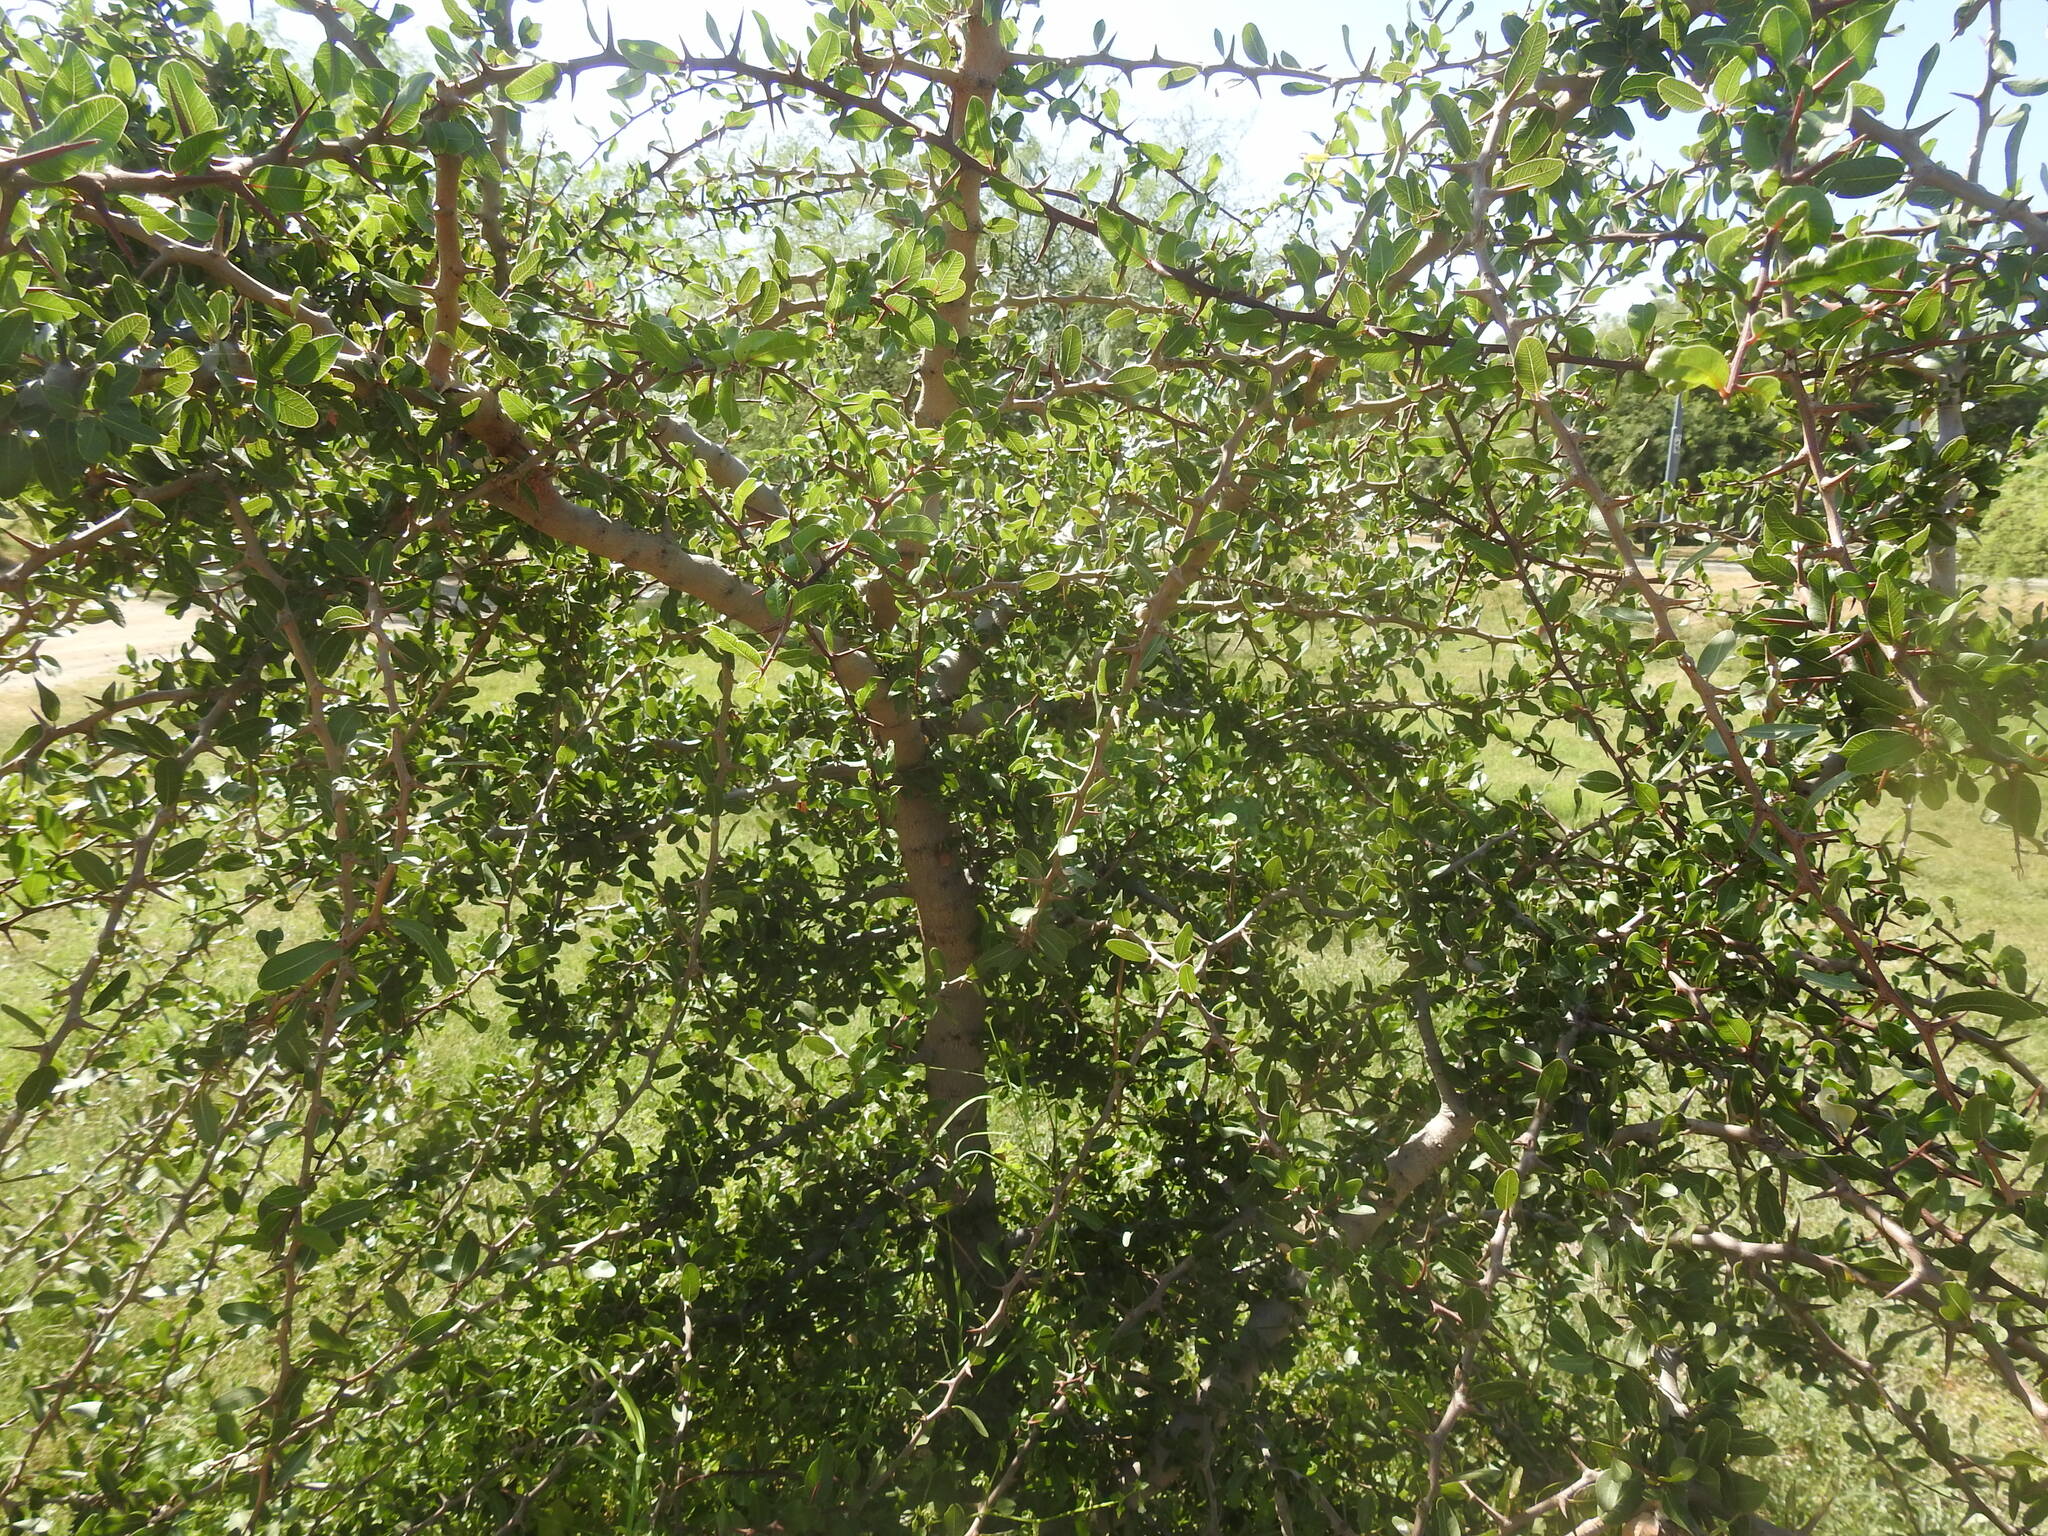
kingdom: Plantae
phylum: Tracheophyta
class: Magnoliopsida
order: Sapindales
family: Simaroubaceae
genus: Castela
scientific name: Castela coccinea
